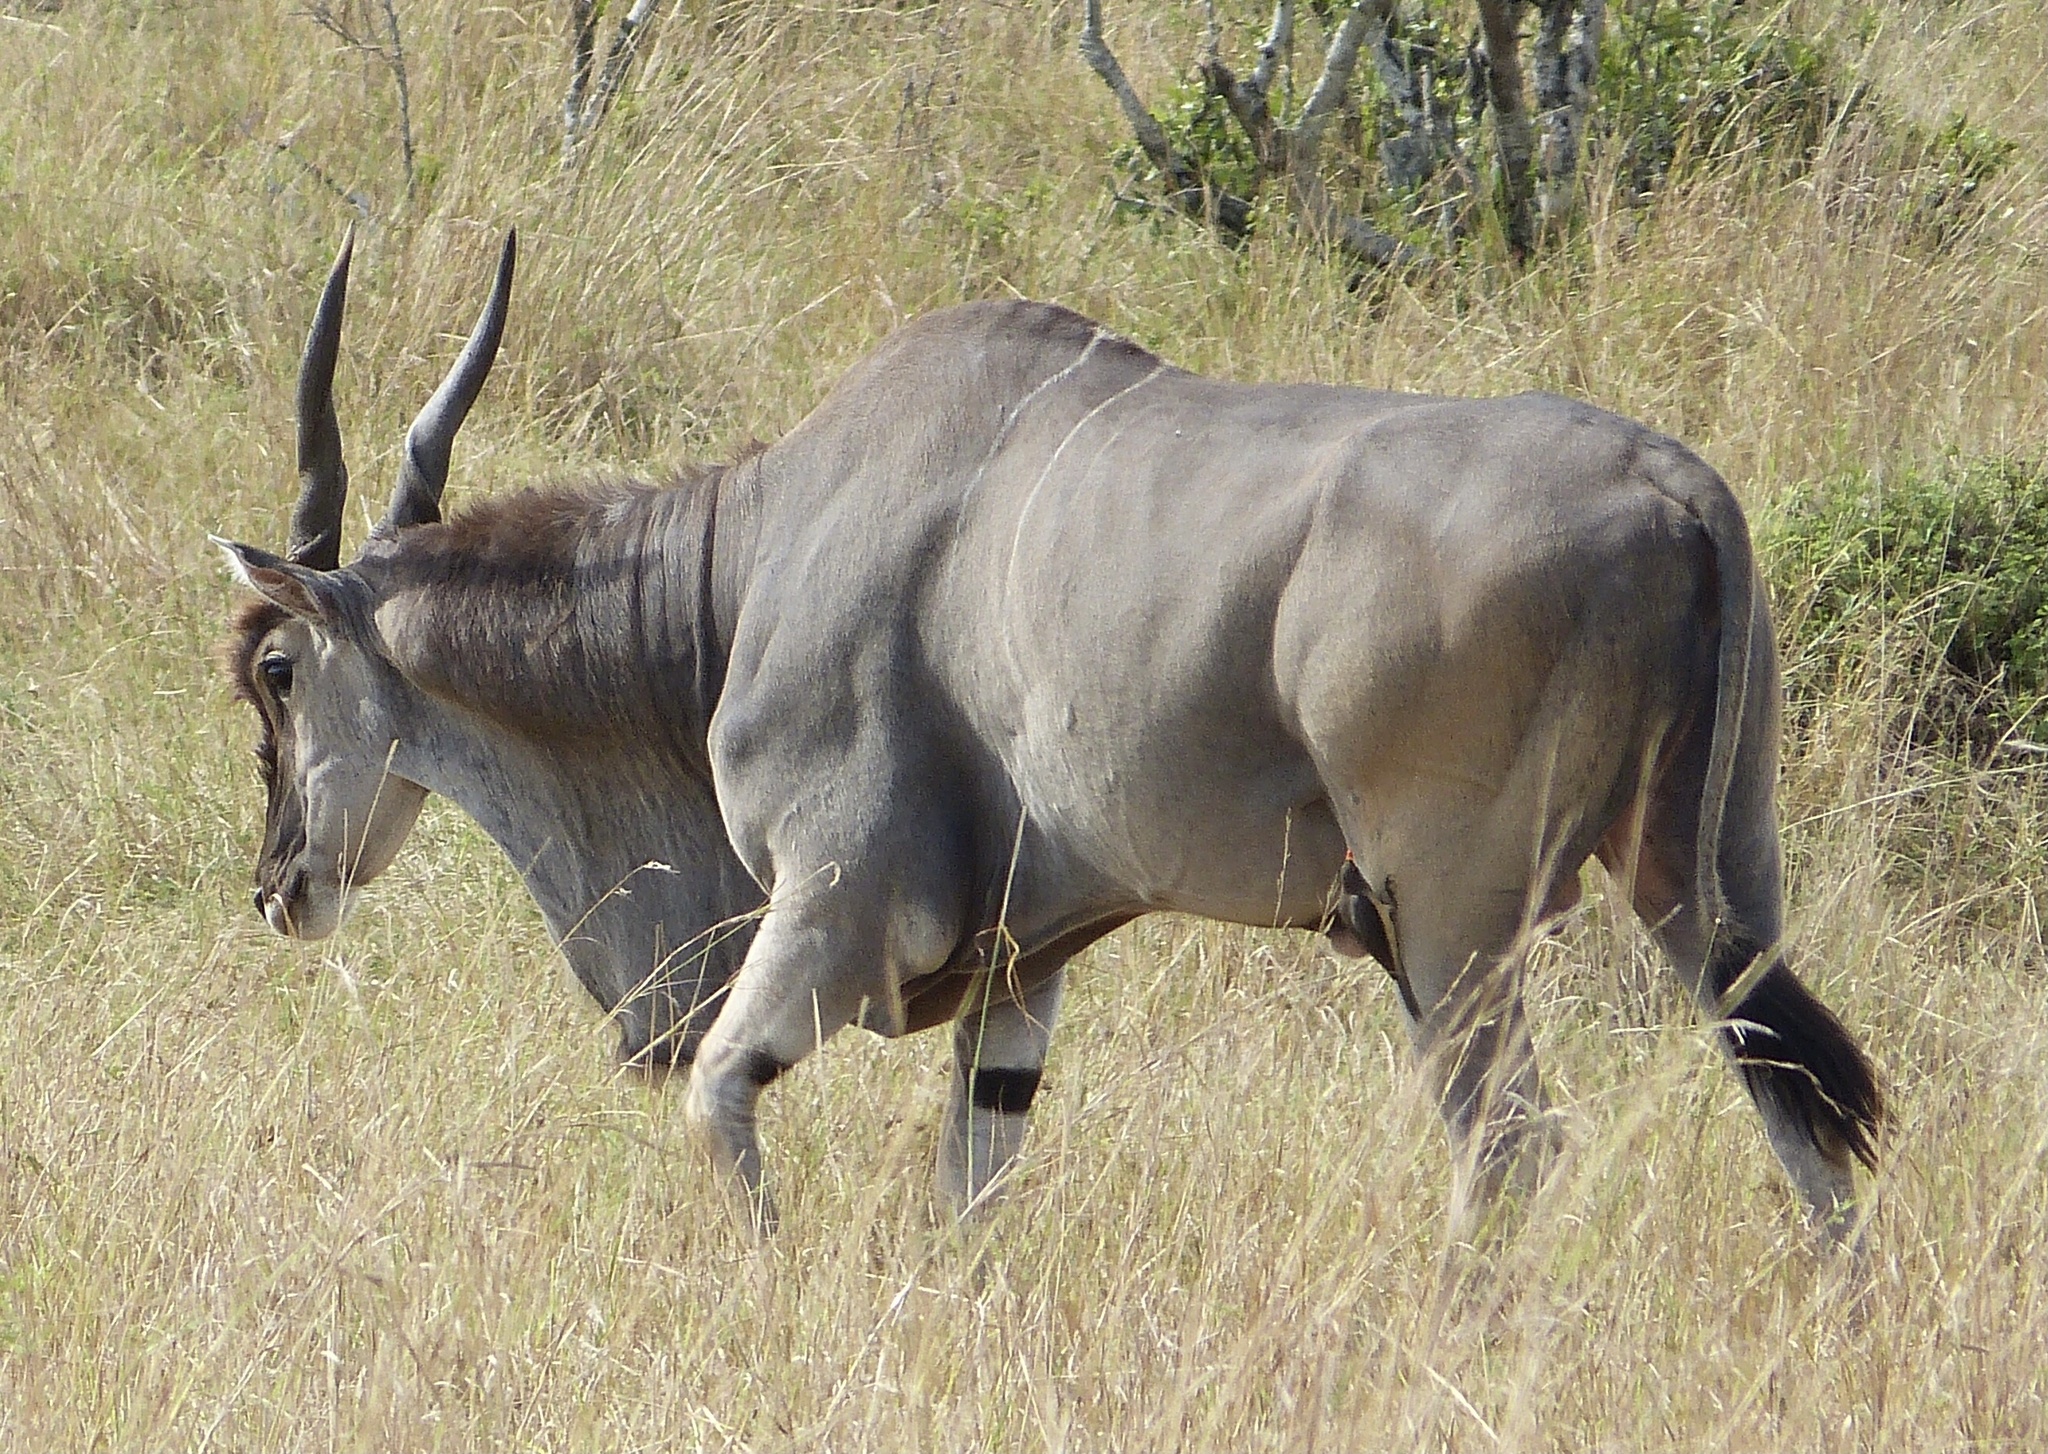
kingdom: Animalia
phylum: Chordata
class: Mammalia
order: Artiodactyla
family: Bovidae
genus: Taurotragus
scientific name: Taurotragus oryx
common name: Common eland
